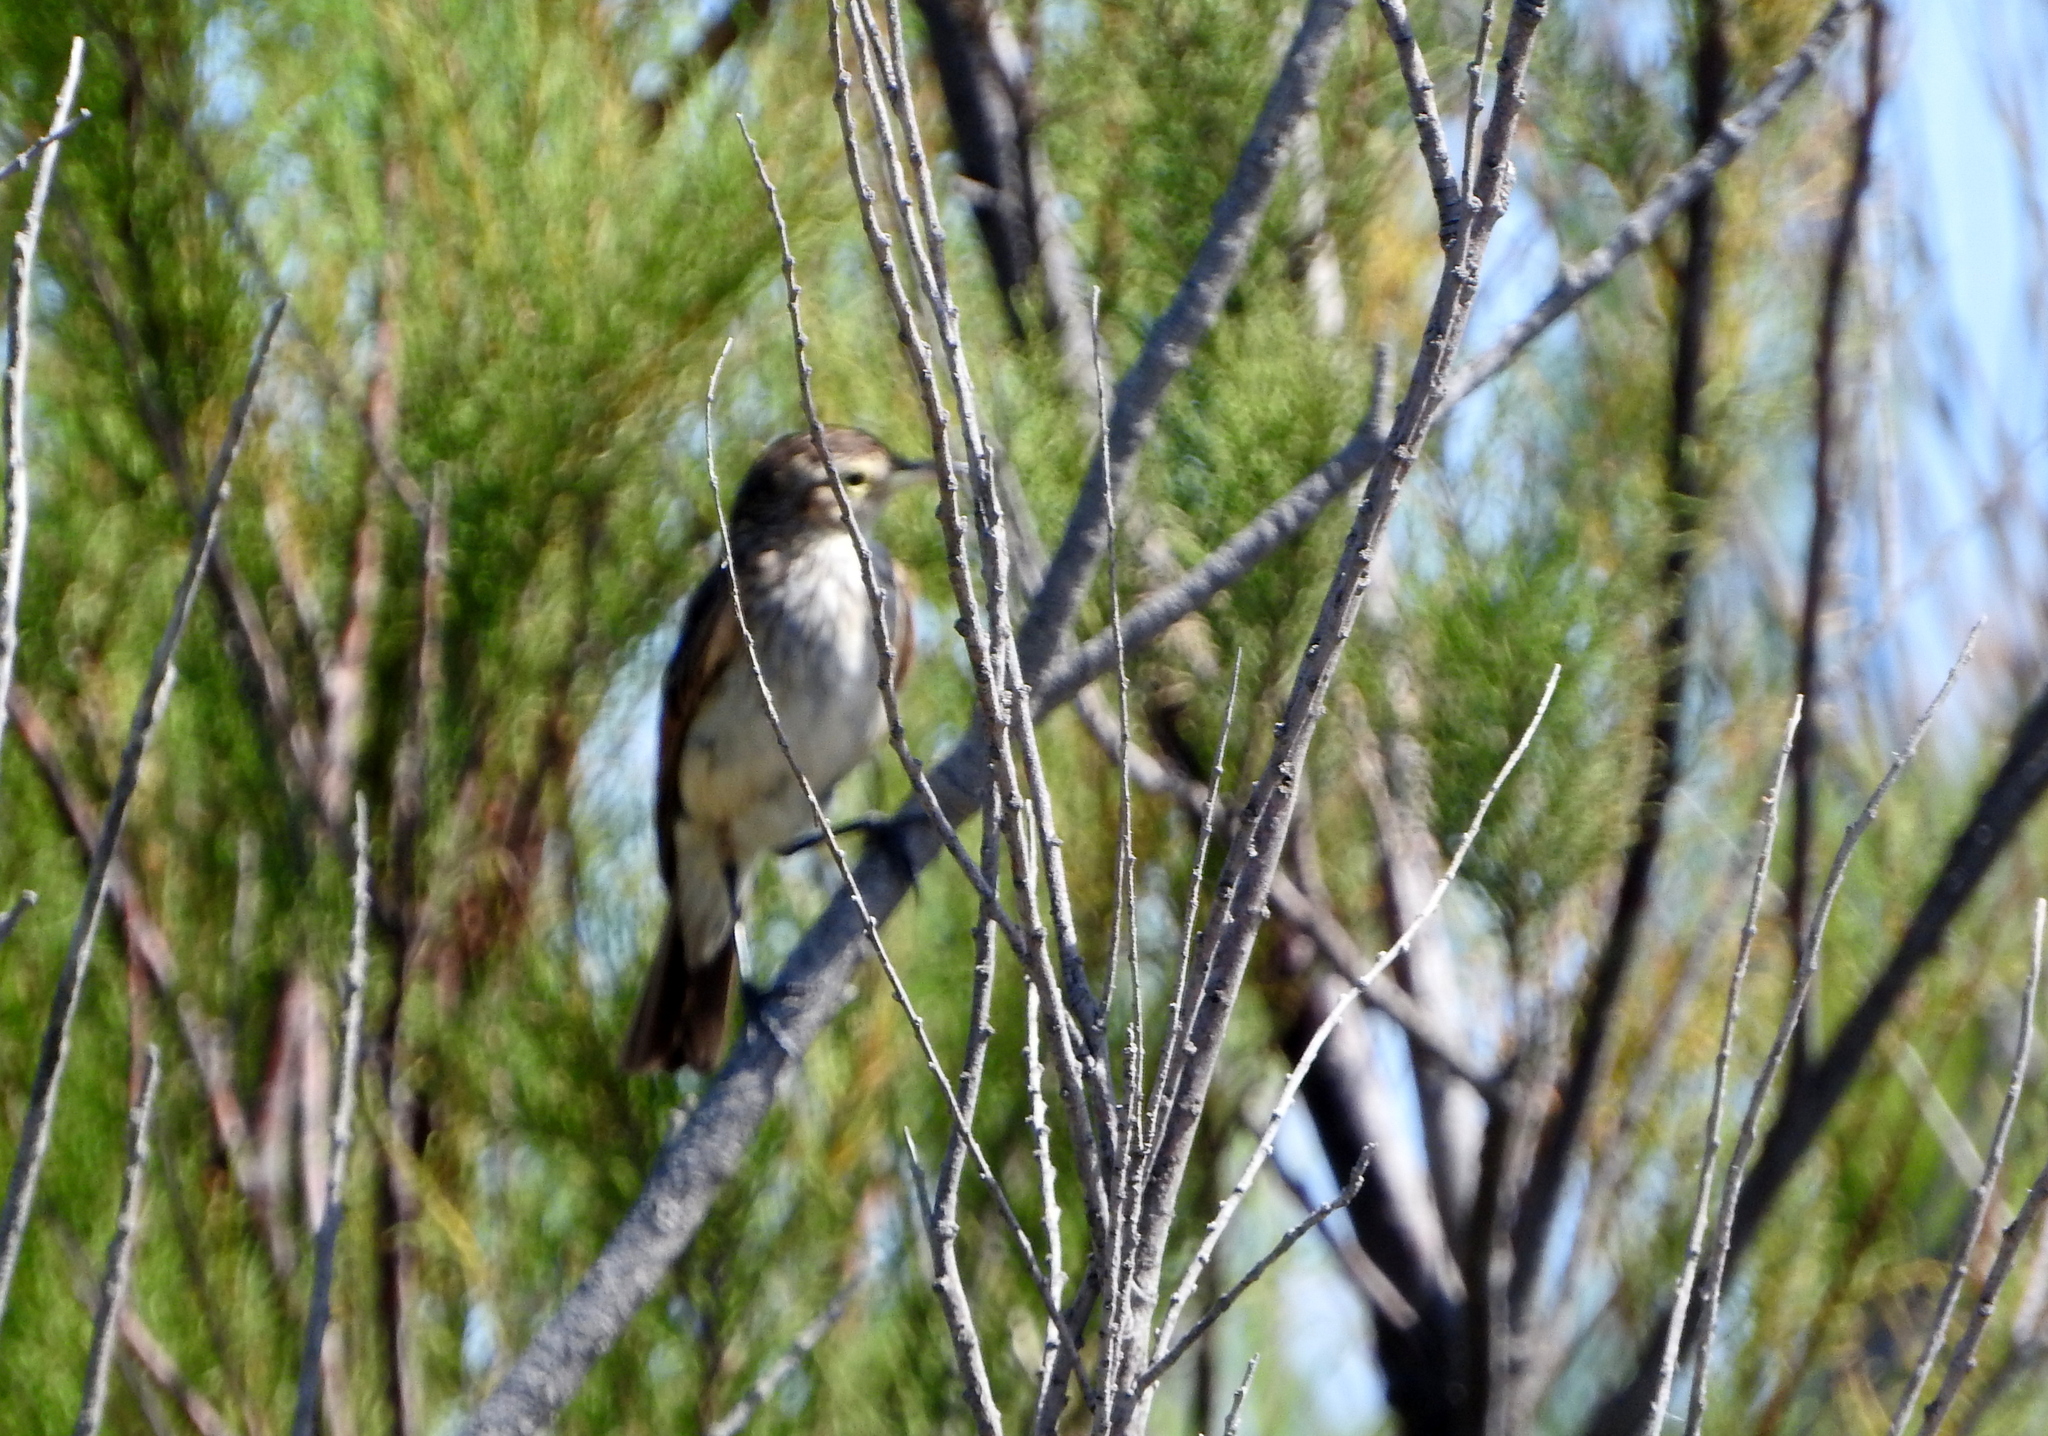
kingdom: Animalia
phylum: Chordata
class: Aves
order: Passeriformes
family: Tyrannidae
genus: Hymenops
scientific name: Hymenops perspicillatus
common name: Spectacled tyrant
